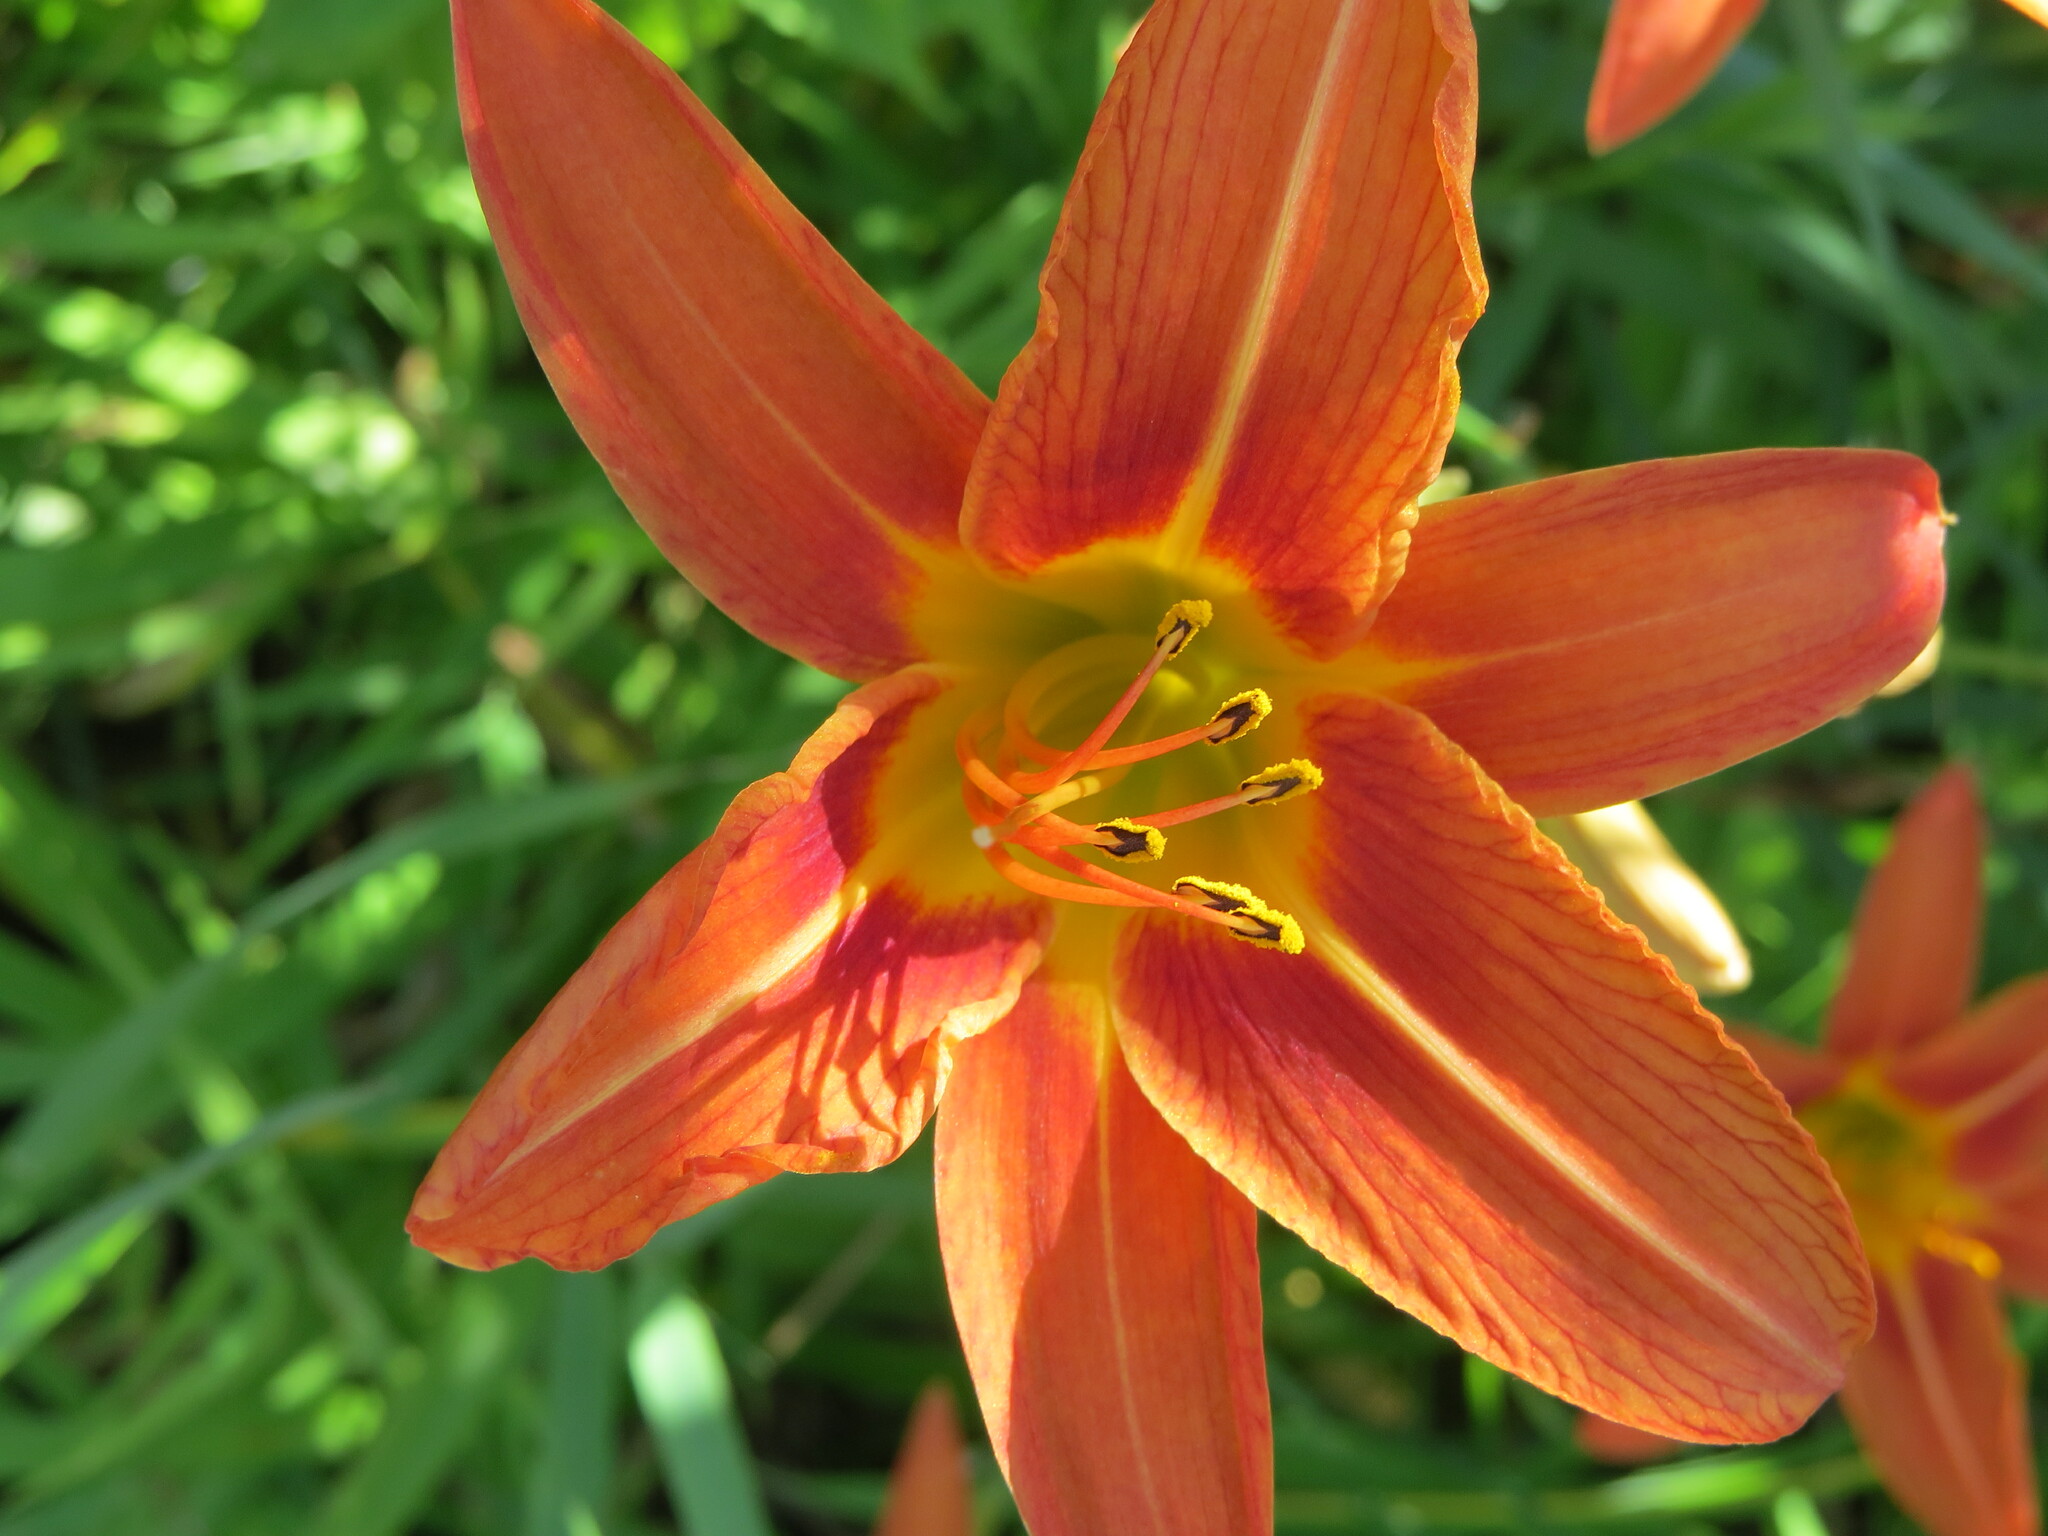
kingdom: Plantae
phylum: Tracheophyta
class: Liliopsida
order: Asparagales
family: Asphodelaceae
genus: Hemerocallis
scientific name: Hemerocallis fulva
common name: Orange day-lily
